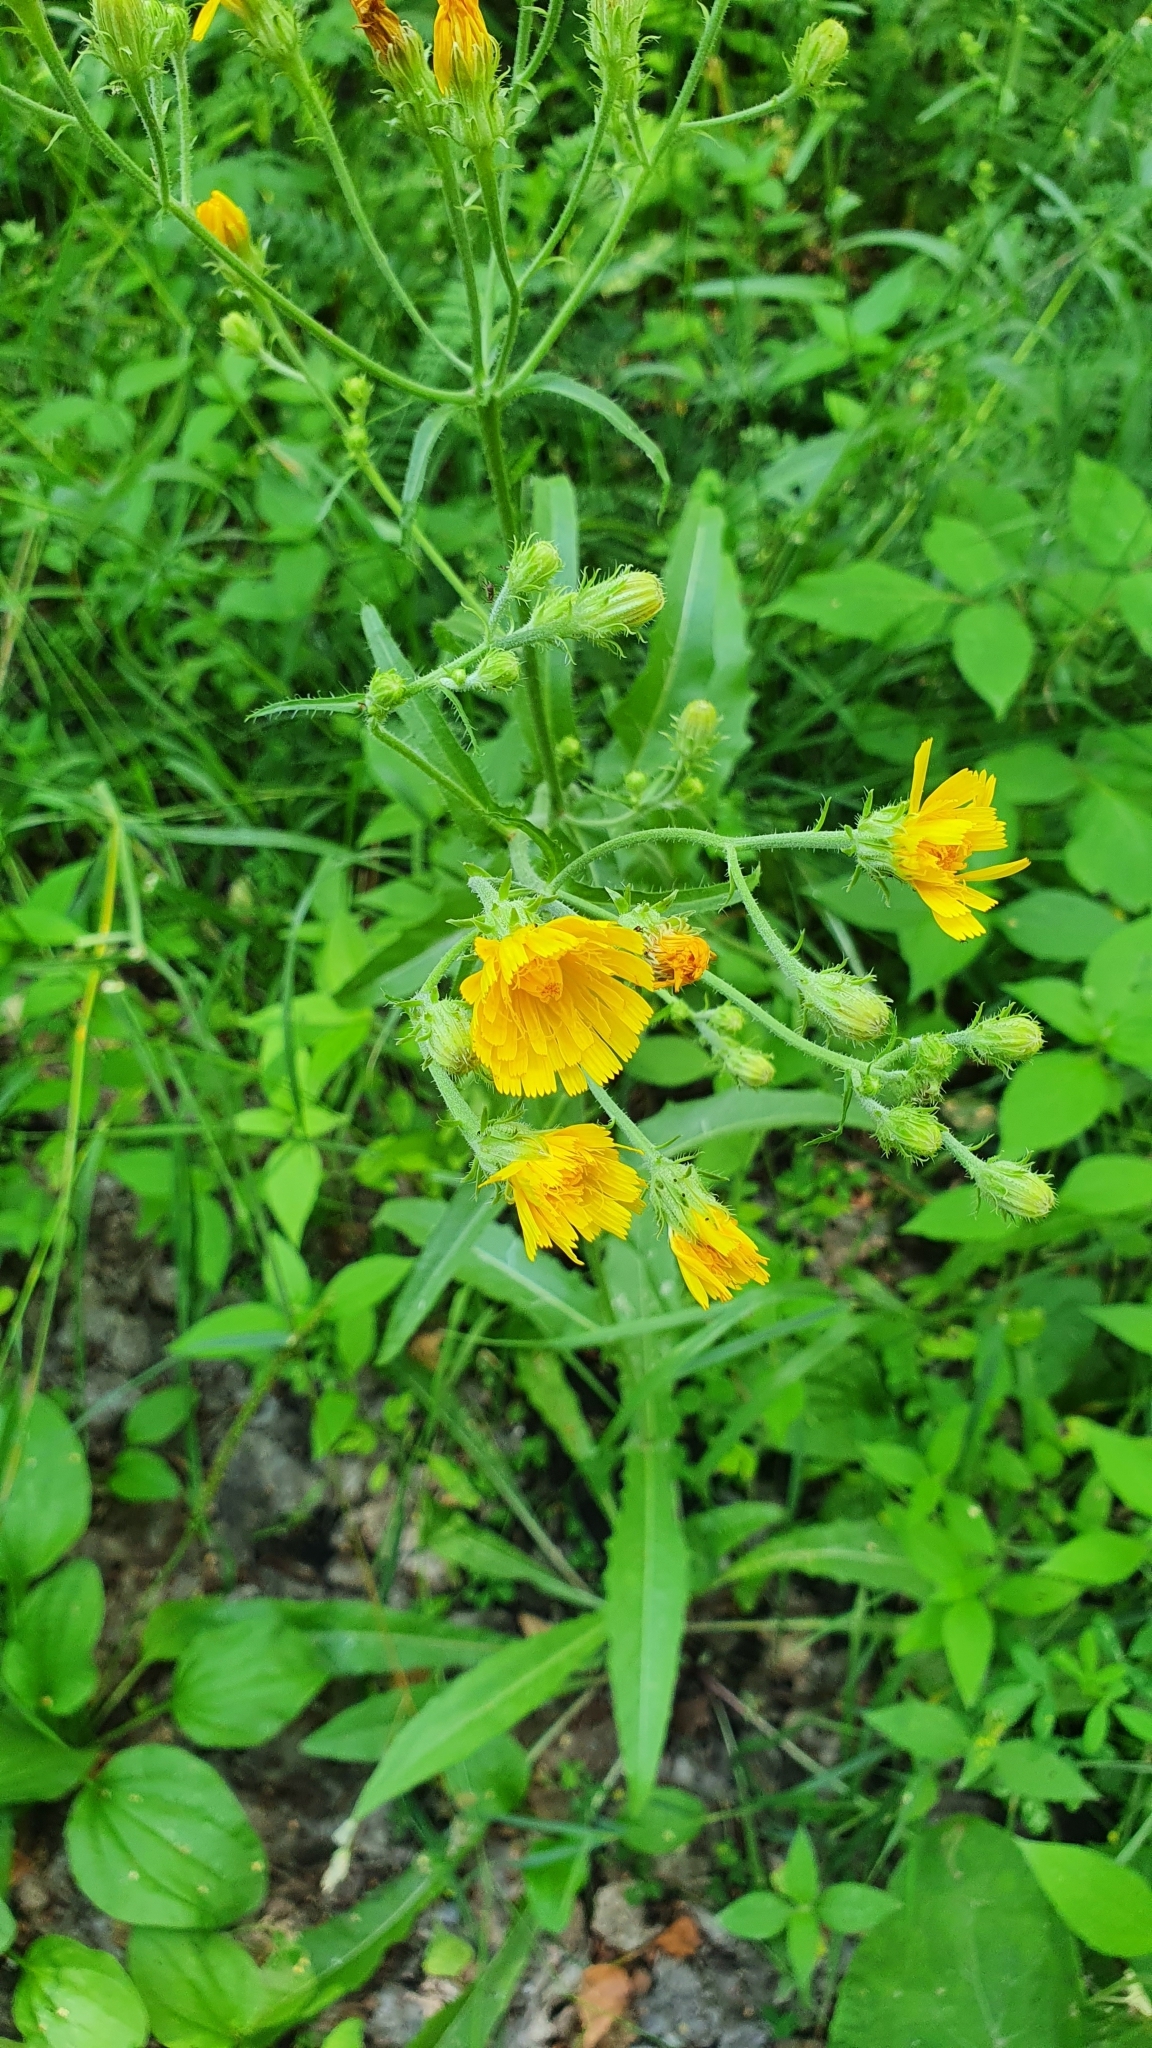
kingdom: Plantae
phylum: Tracheophyta
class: Magnoliopsida
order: Asterales
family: Asteraceae
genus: Picris
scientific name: Picris hieracioides
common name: Hawkweed oxtongue
